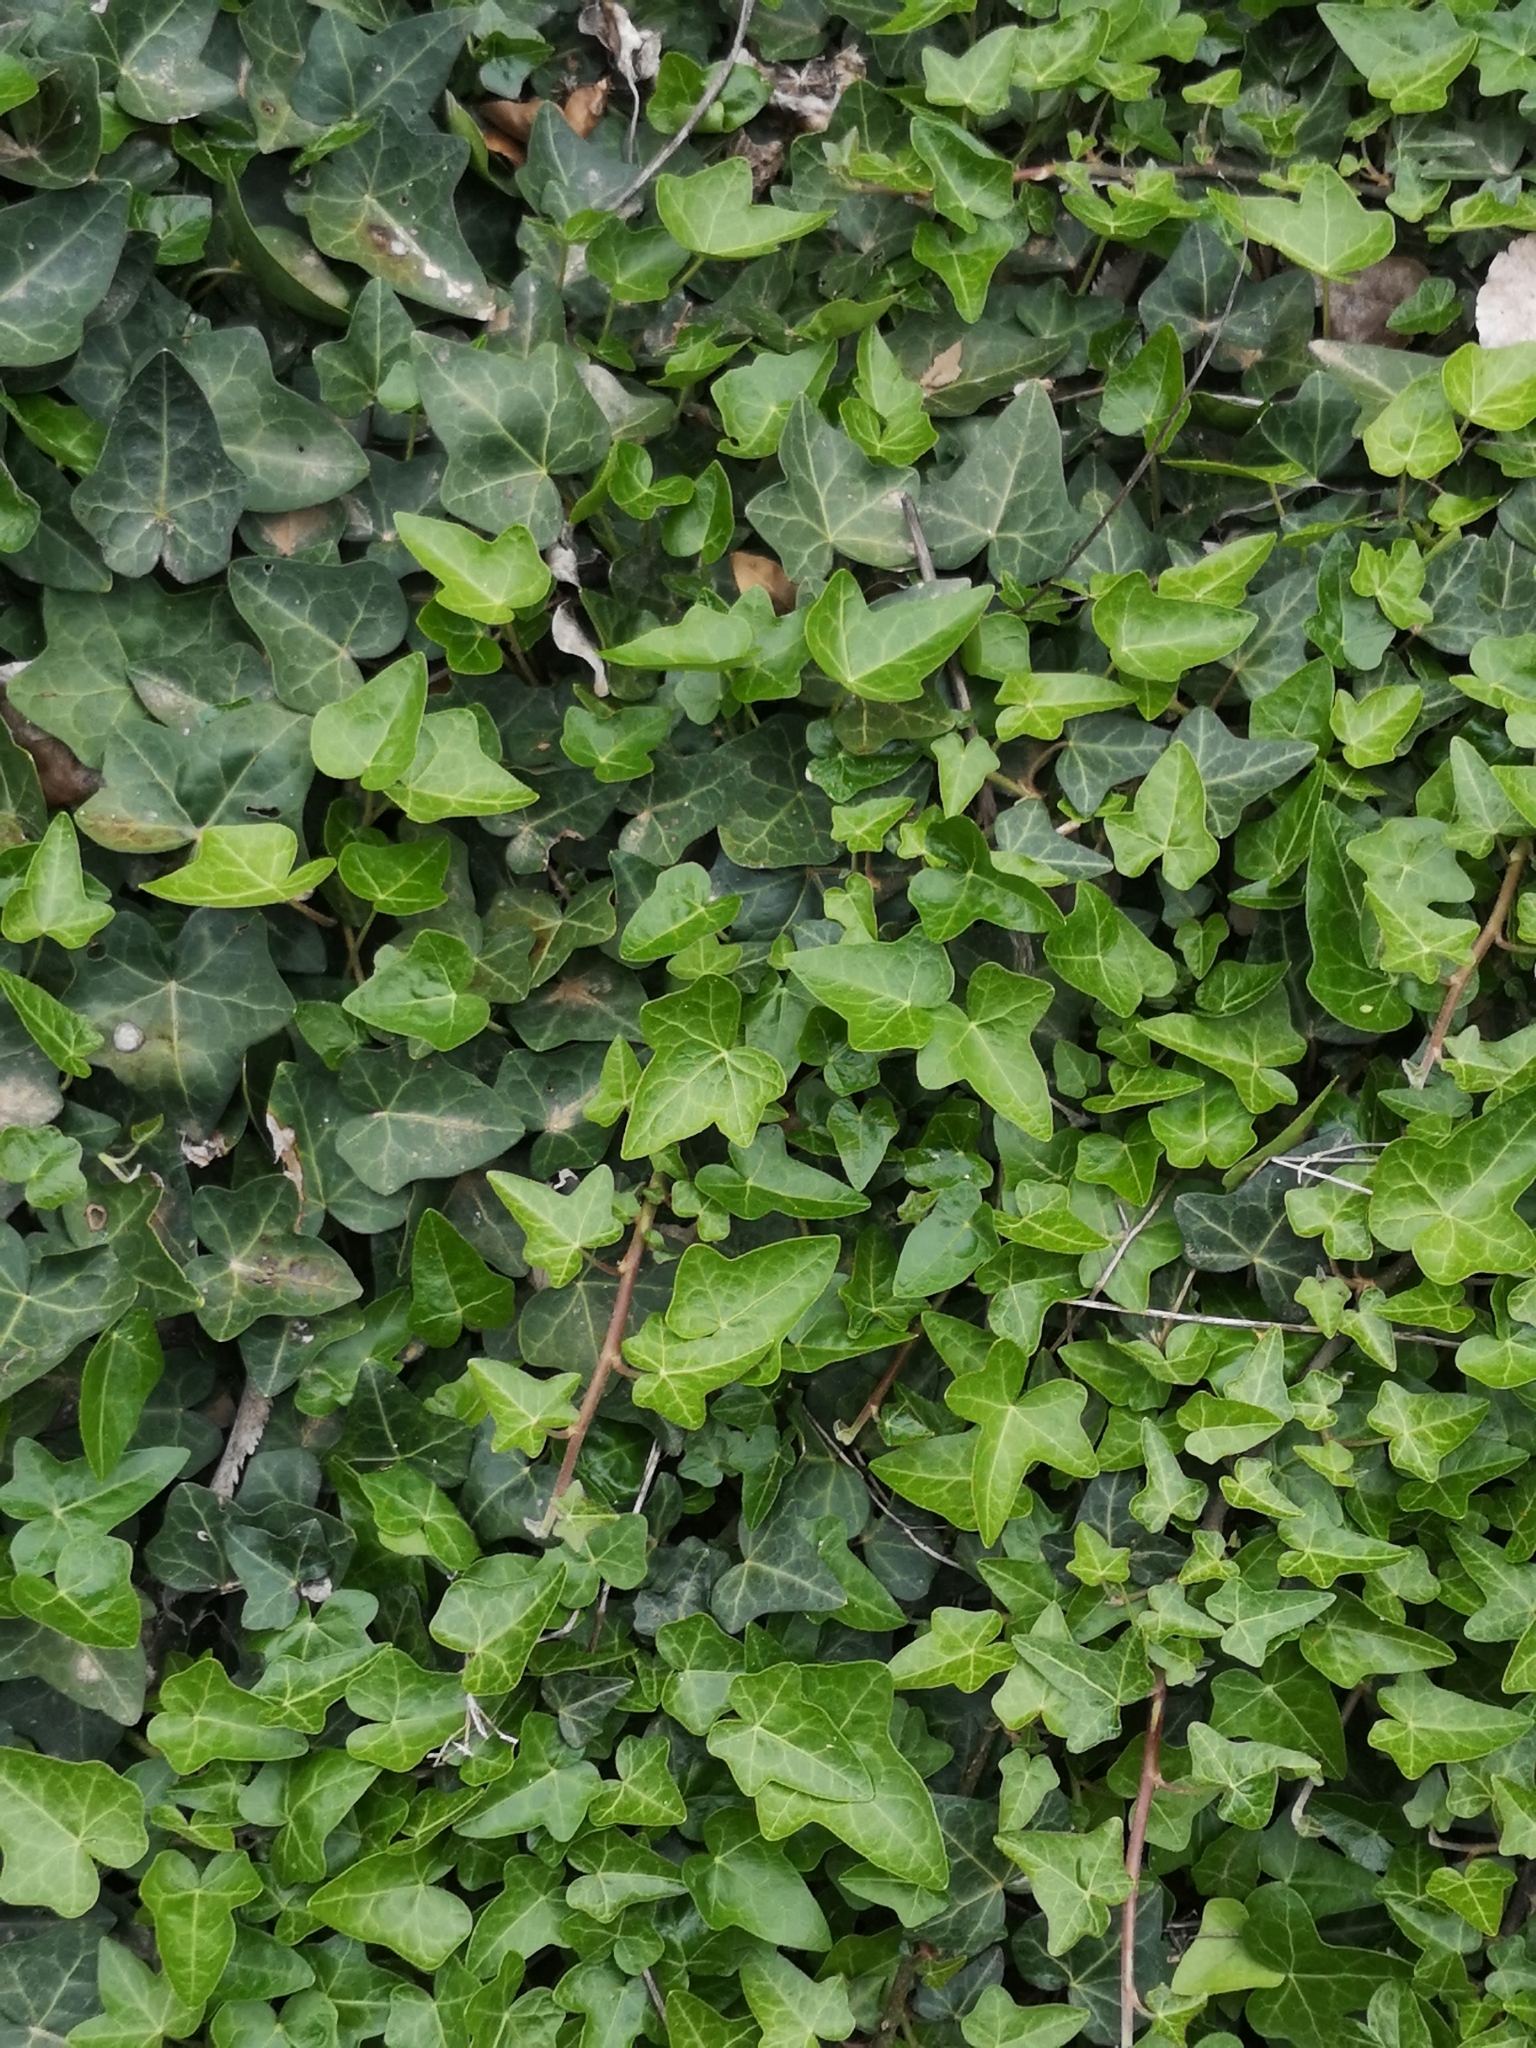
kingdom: Plantae
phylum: Tracheophyta
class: Magnoliopsida
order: Apiales
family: Araliaceae
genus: Hedera
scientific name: Hedera helix
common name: Ivy
